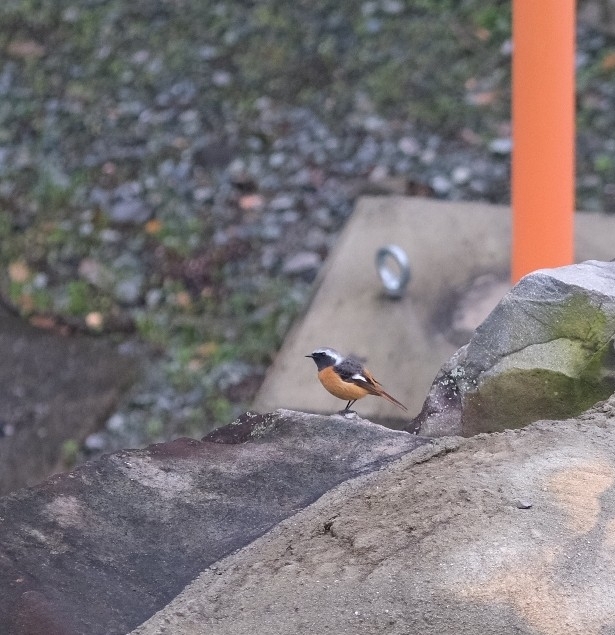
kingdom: Animalia
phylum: Chordata
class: Aves
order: Passeriformes
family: Muscicapidae
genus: Phoenicurus
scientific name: Phoenicurus auroreus
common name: Daurian redstart
